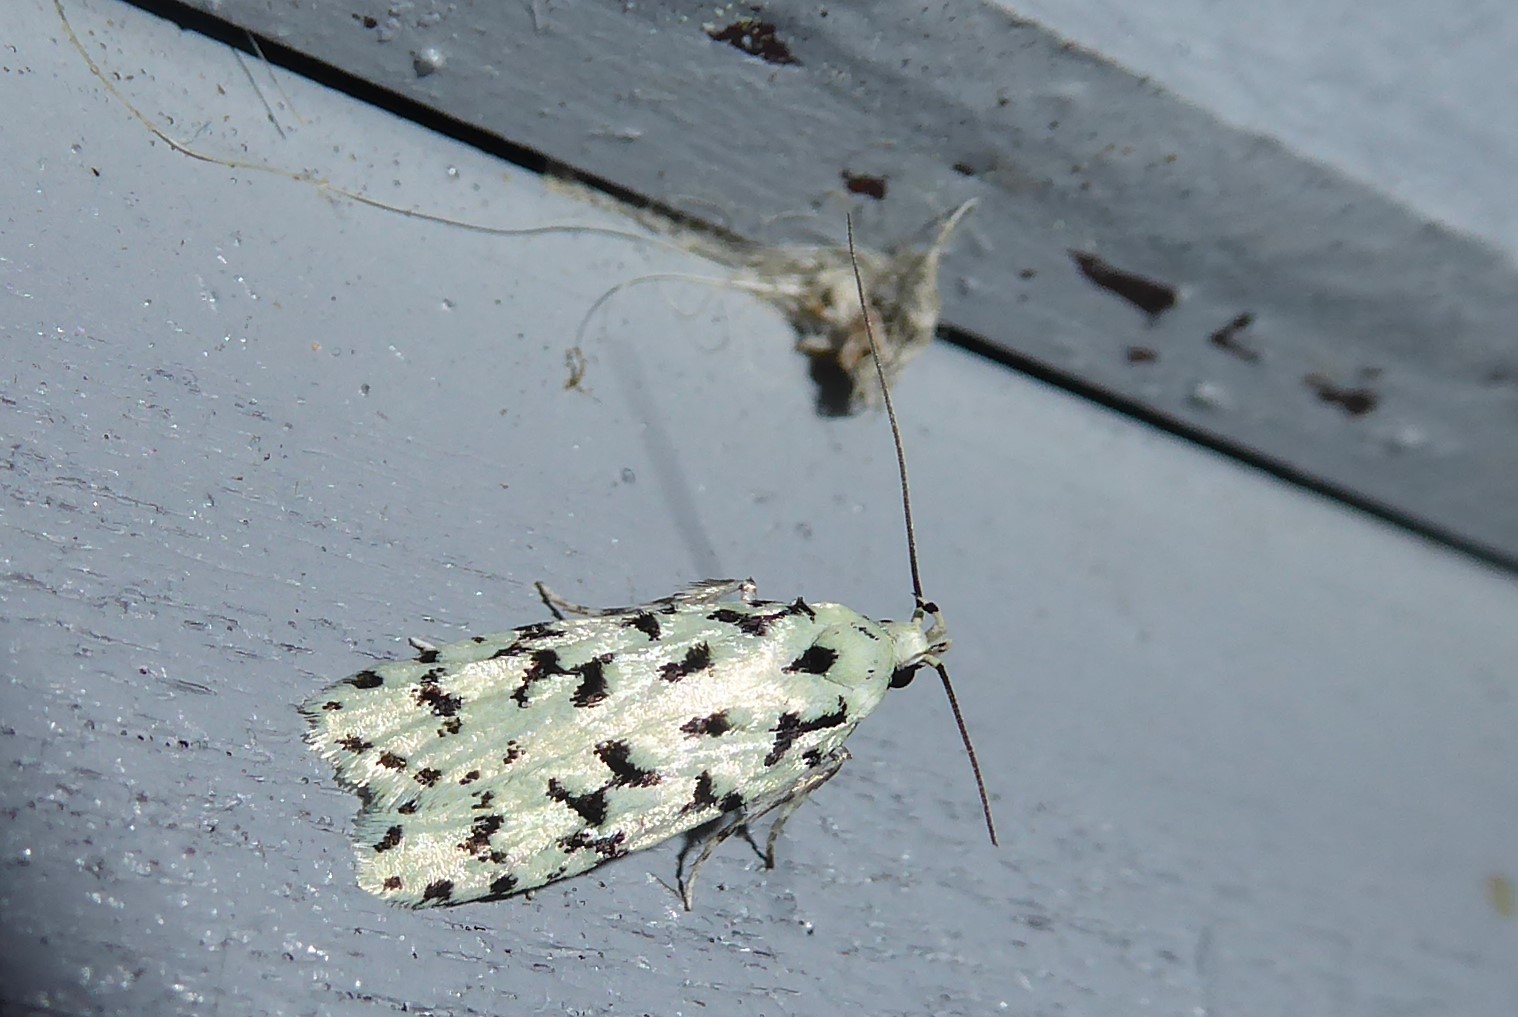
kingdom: Animalia
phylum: Arthropoda
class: Insecta
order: Lepidoptera
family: Oecophoridae
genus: Izatha
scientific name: Izatha huttoni
